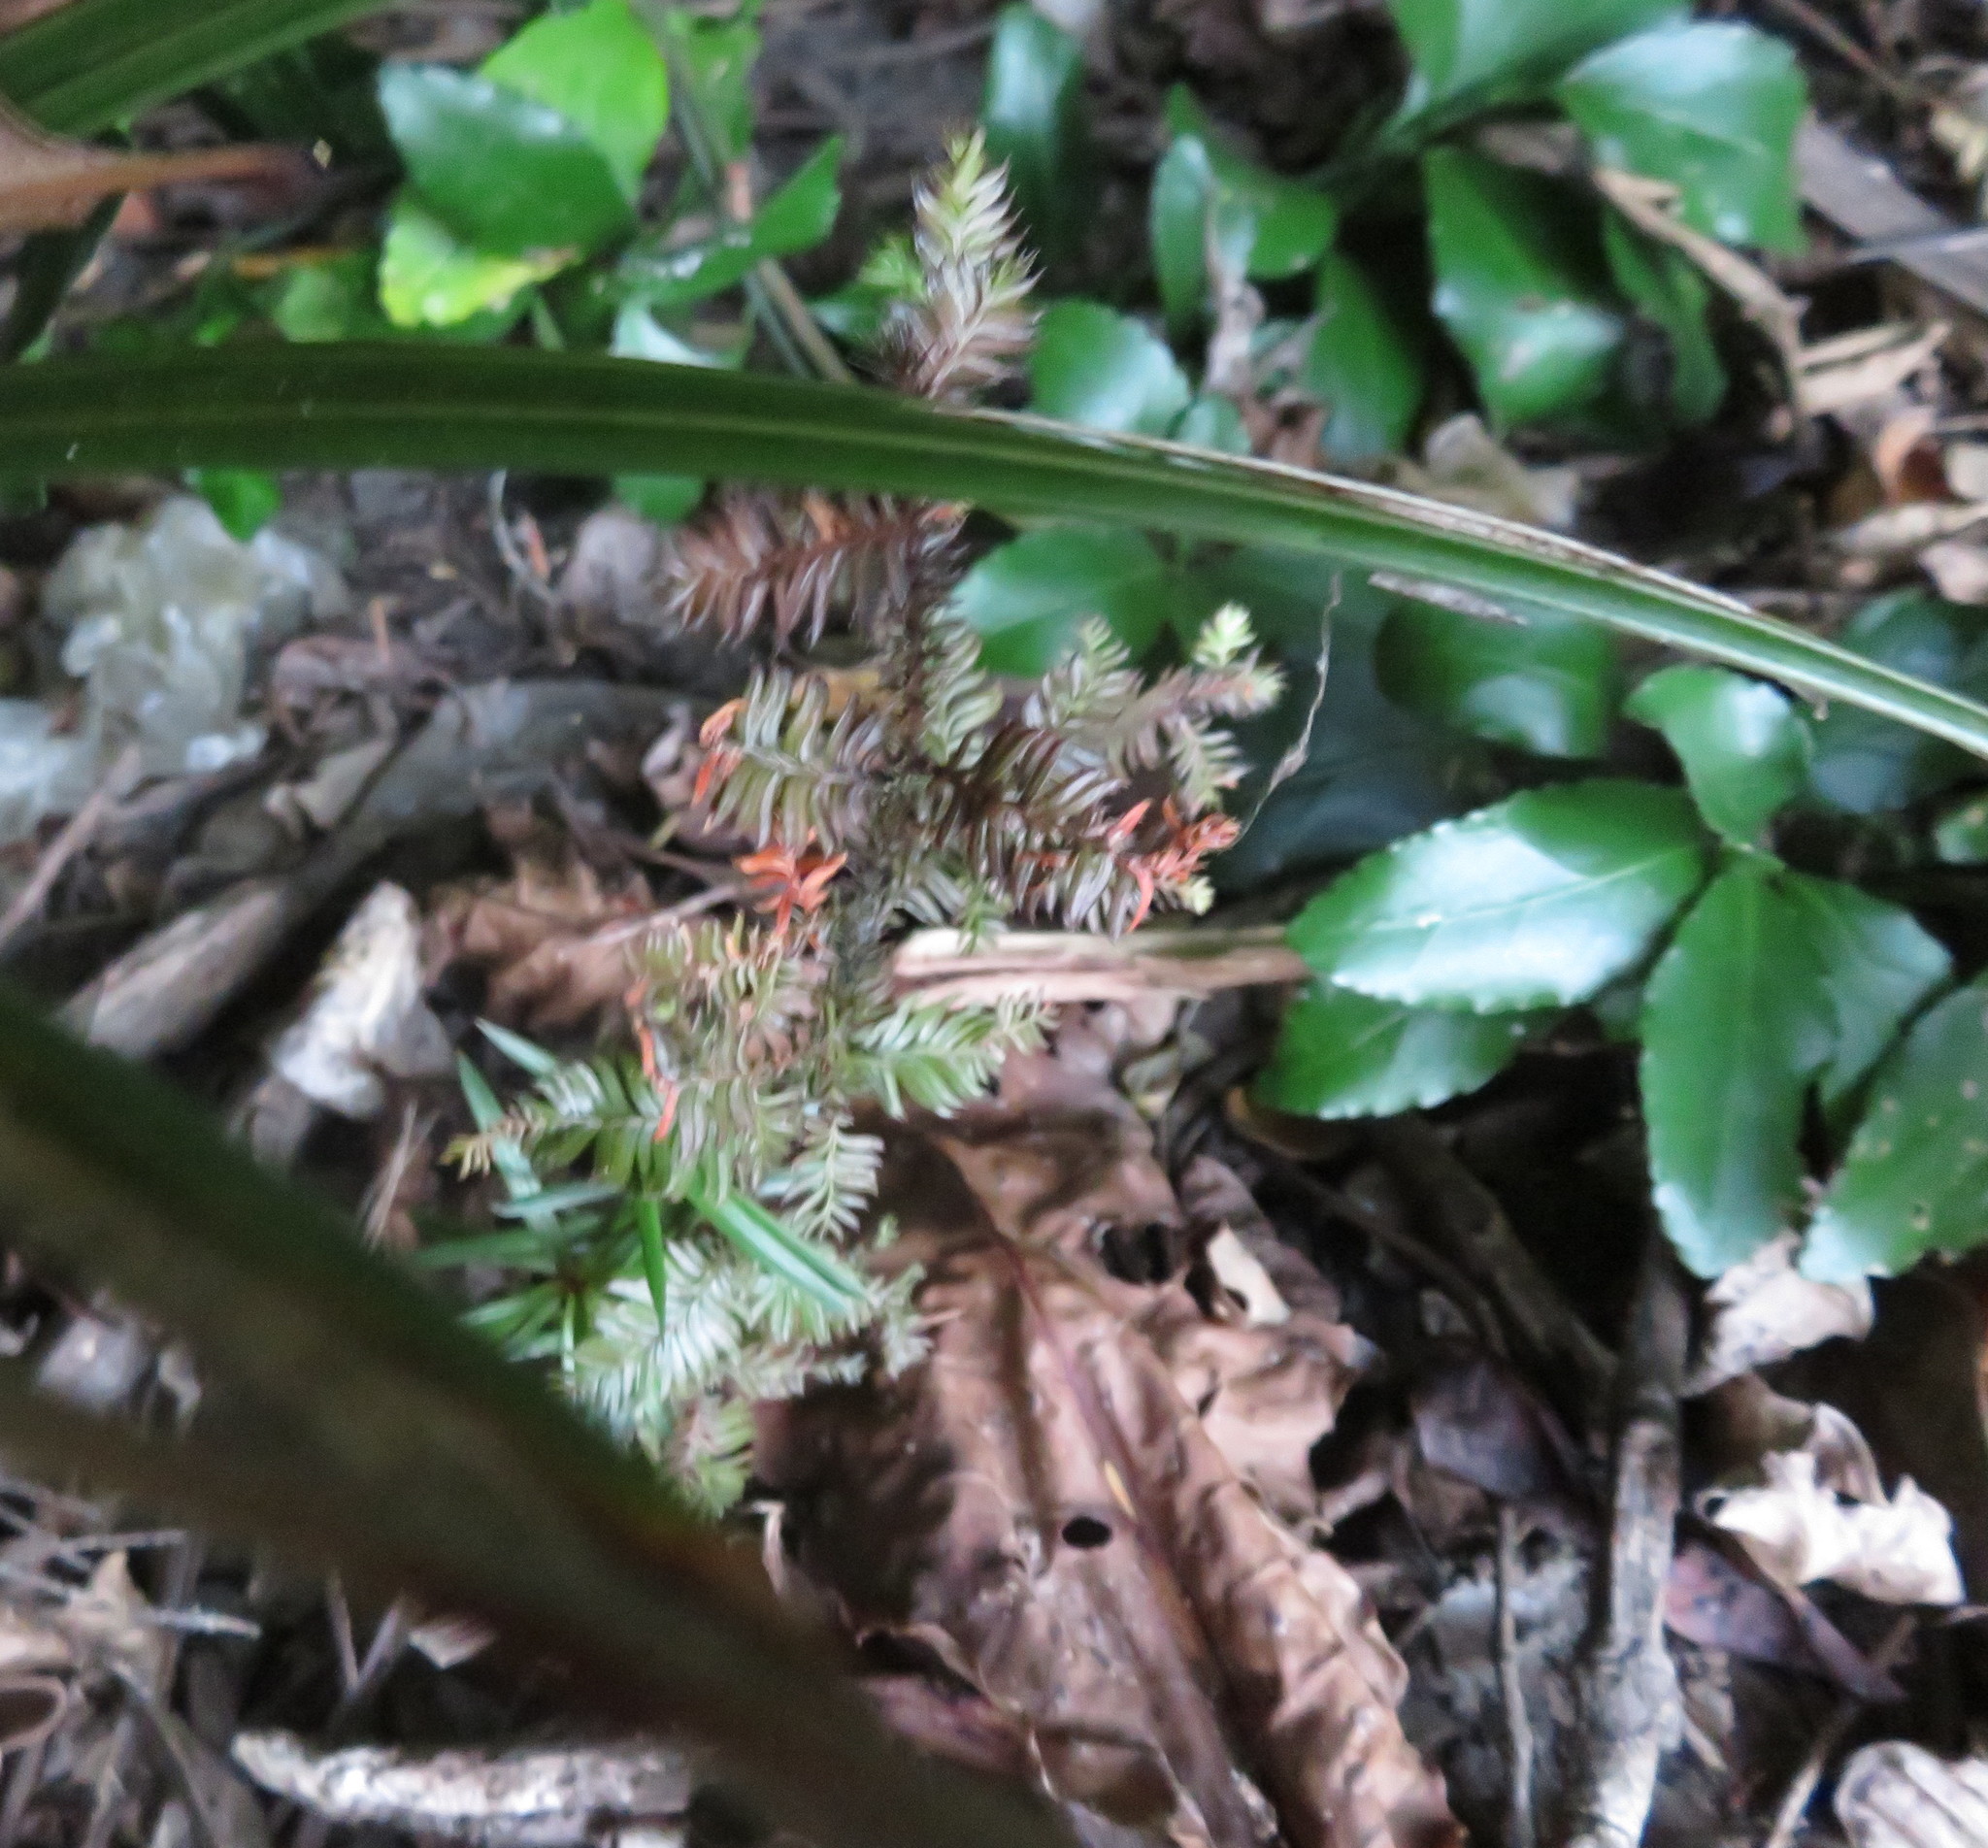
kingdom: Plantae
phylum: Tracheophyta
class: Pinopsida
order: Pinales
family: Podocarpaceae
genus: Dacrycarpus
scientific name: Dacrycarpus dacrydioides
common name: White pine
